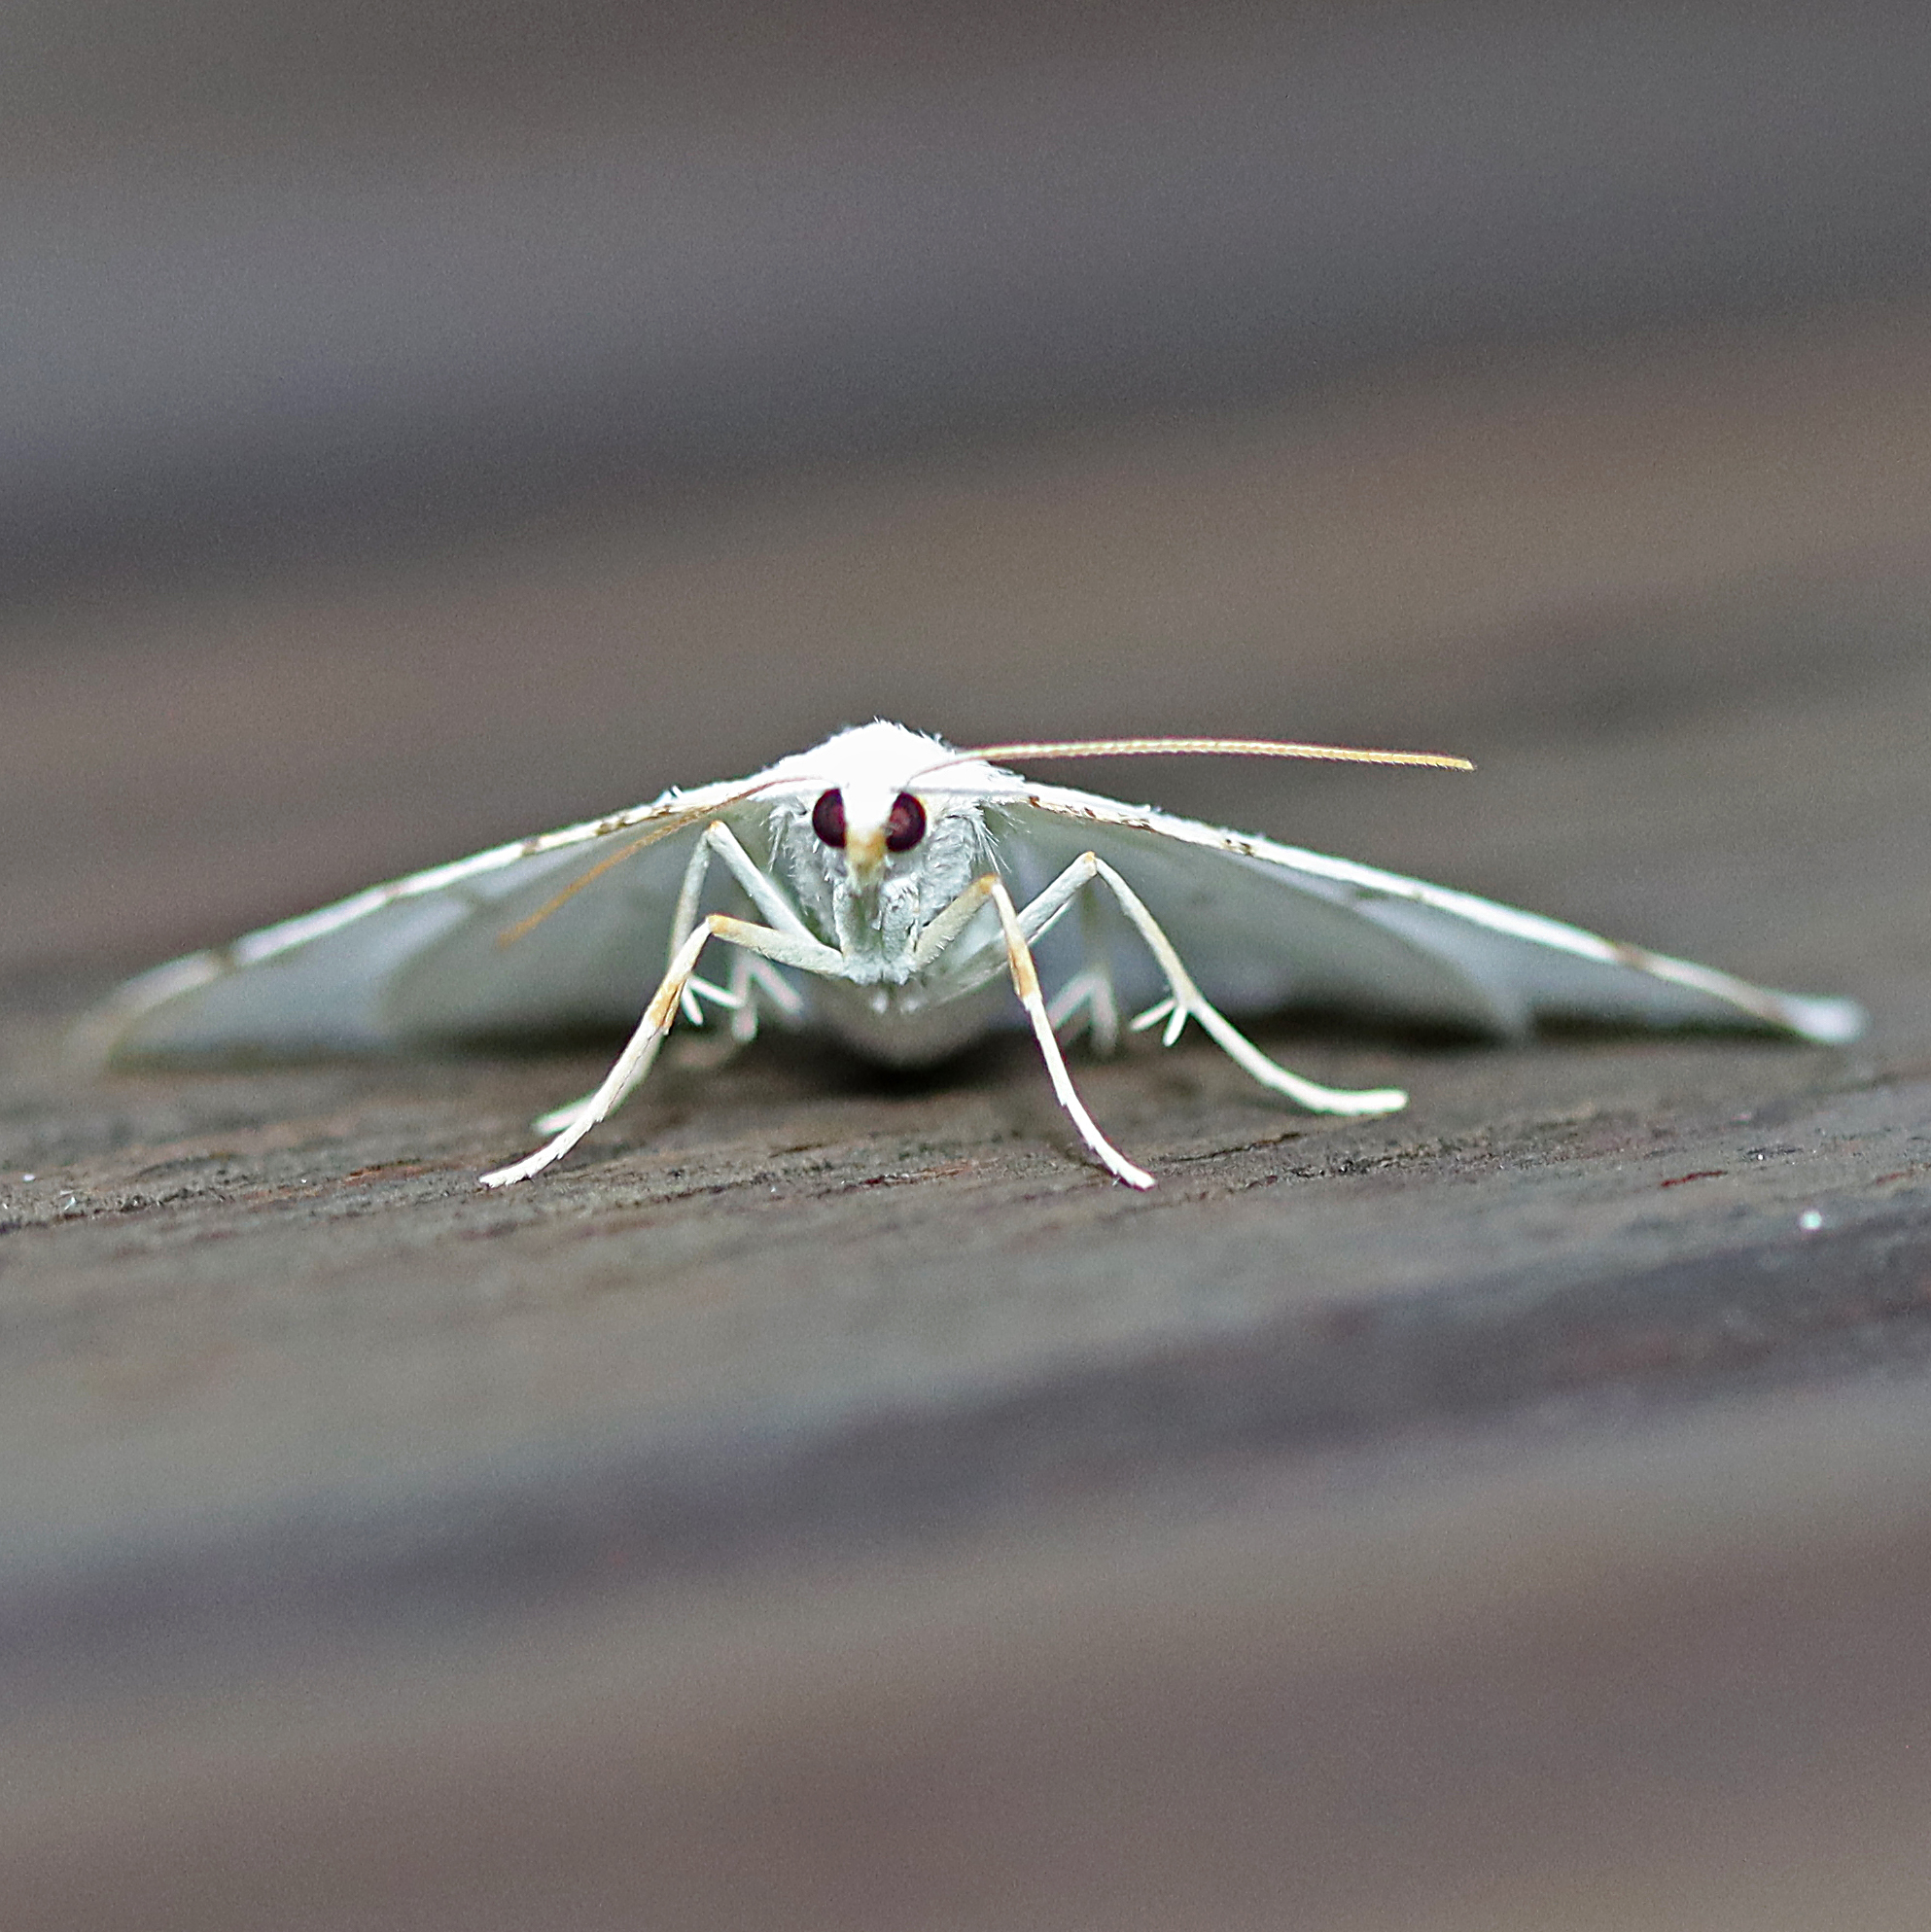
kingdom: Animalia
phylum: Arthropoda
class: Insecta
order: Lepidoptera
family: Geometridae
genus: Macaria
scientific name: Macaria pustularia
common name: Lesser maple spanworm moth
